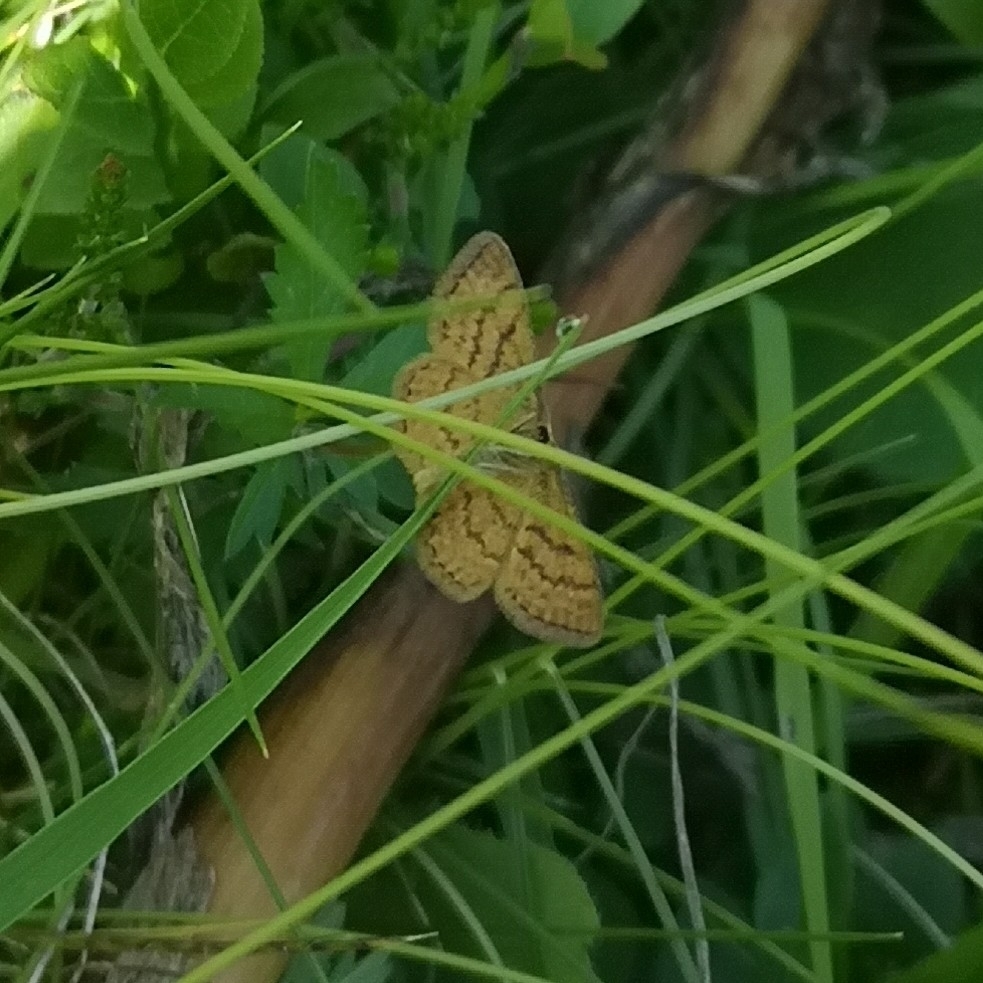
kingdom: Animalia
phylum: Arthropoda
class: Insecta
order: Lepidoptera
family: Geometridae
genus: Idaea
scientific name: Idaea serpentata
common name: Ochraceous wave
